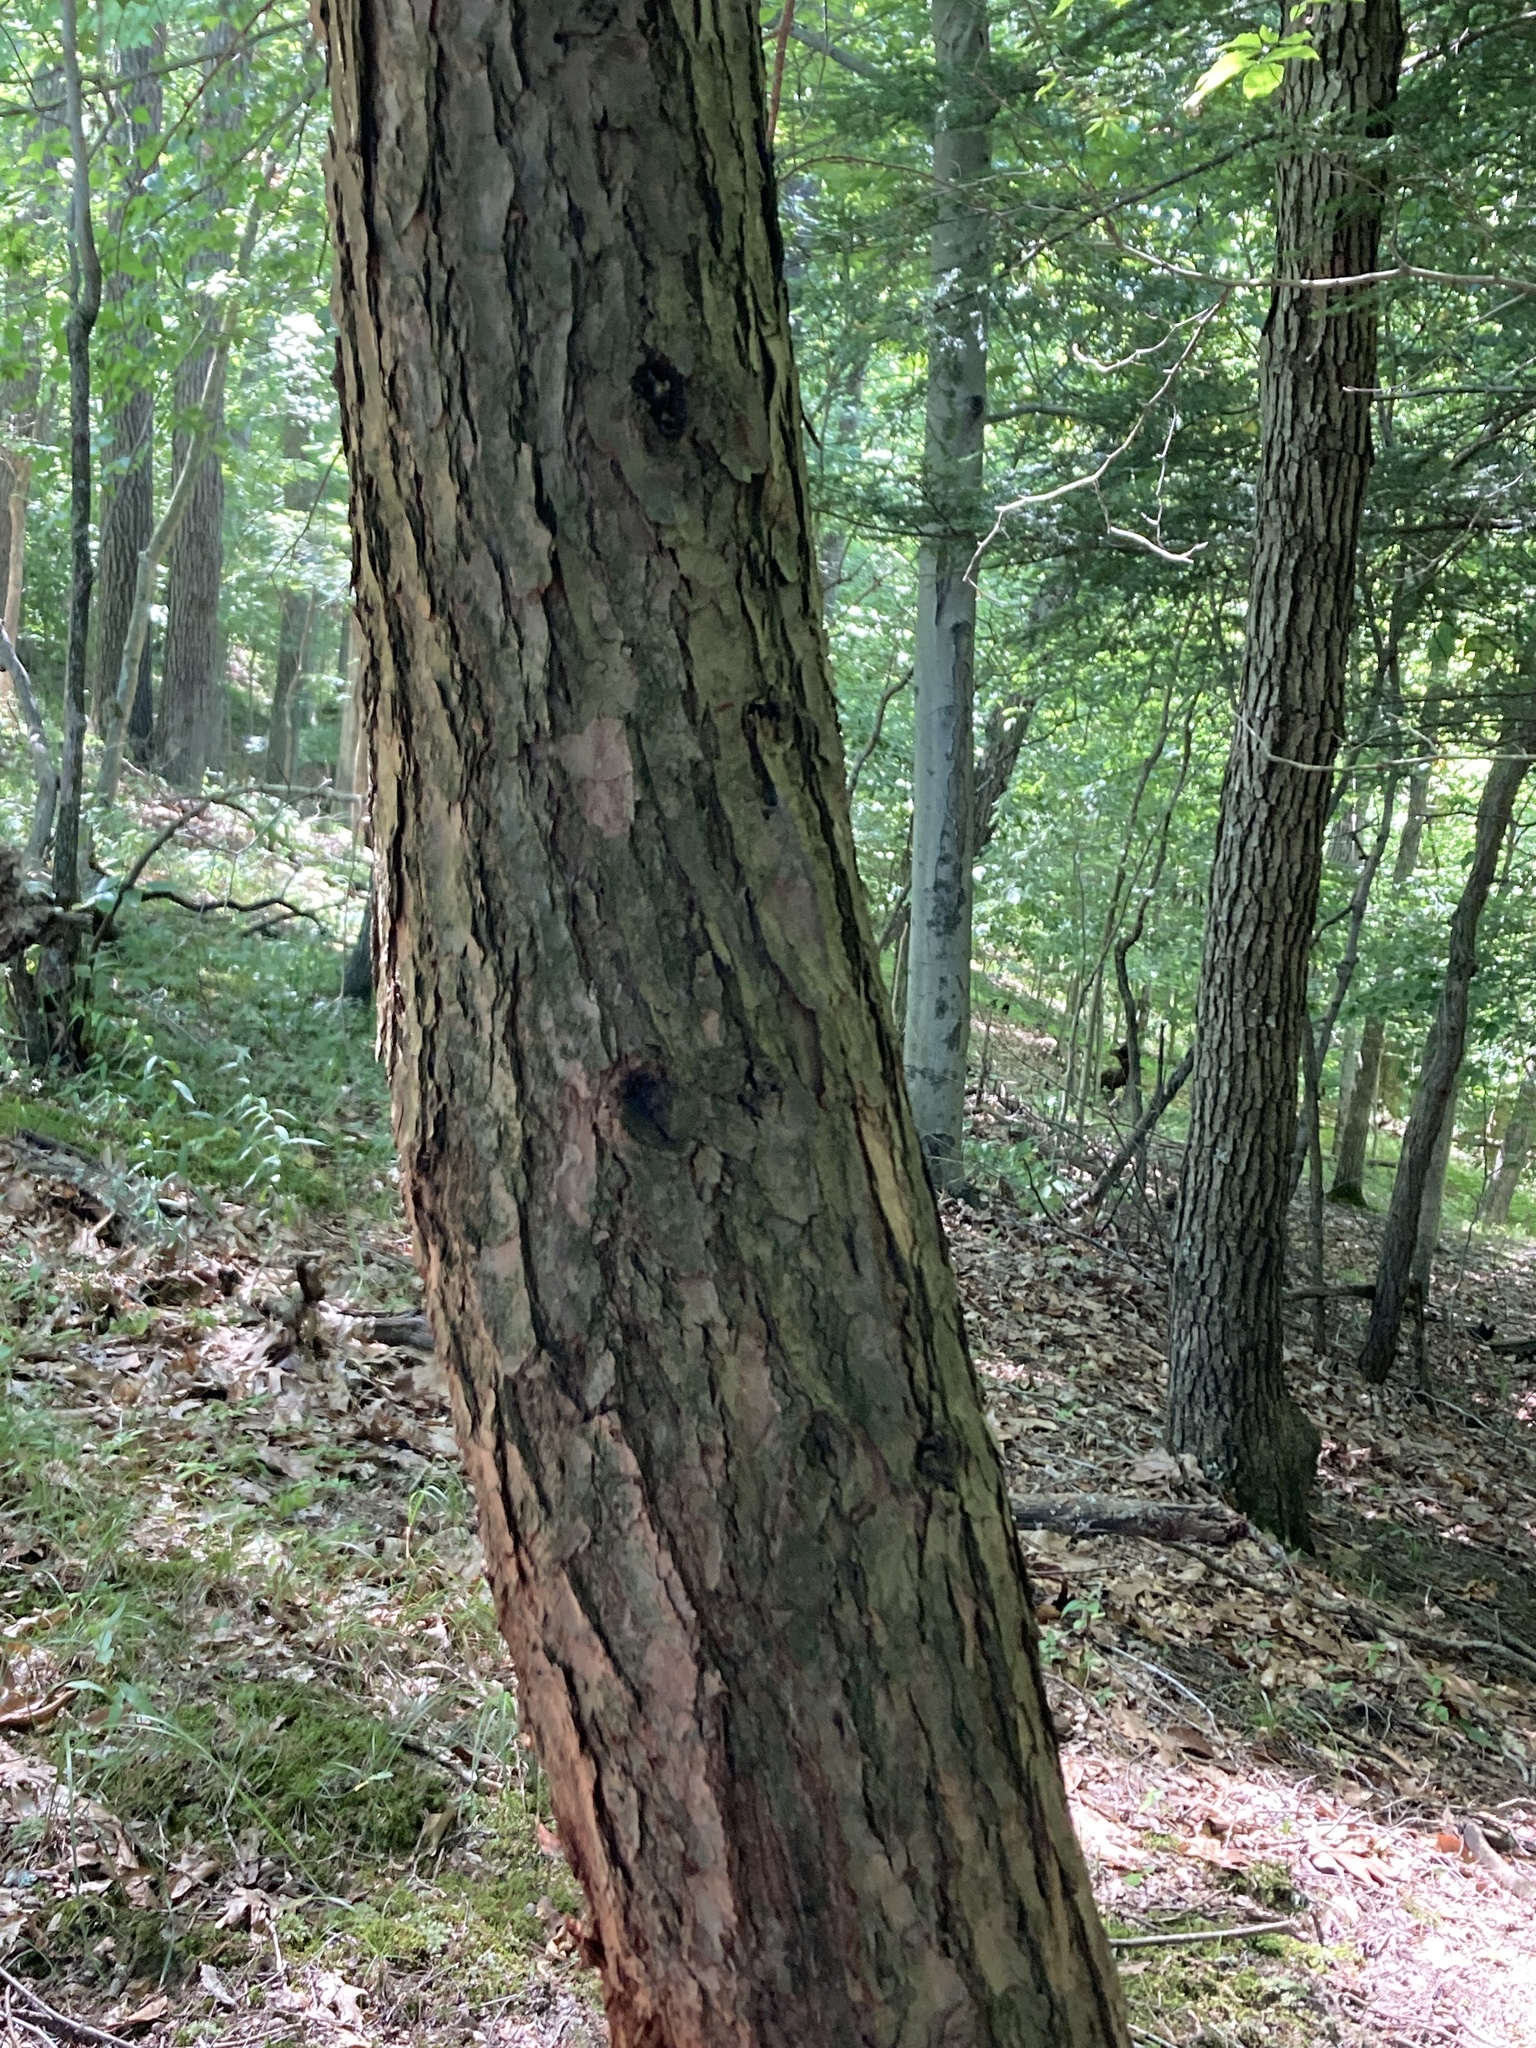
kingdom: Plantae
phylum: Tracheophyta
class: Pinopsida
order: Pinales
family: Pinaceae
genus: Tsuga
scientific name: Tsuga canadensis
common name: Eastern hemlock
